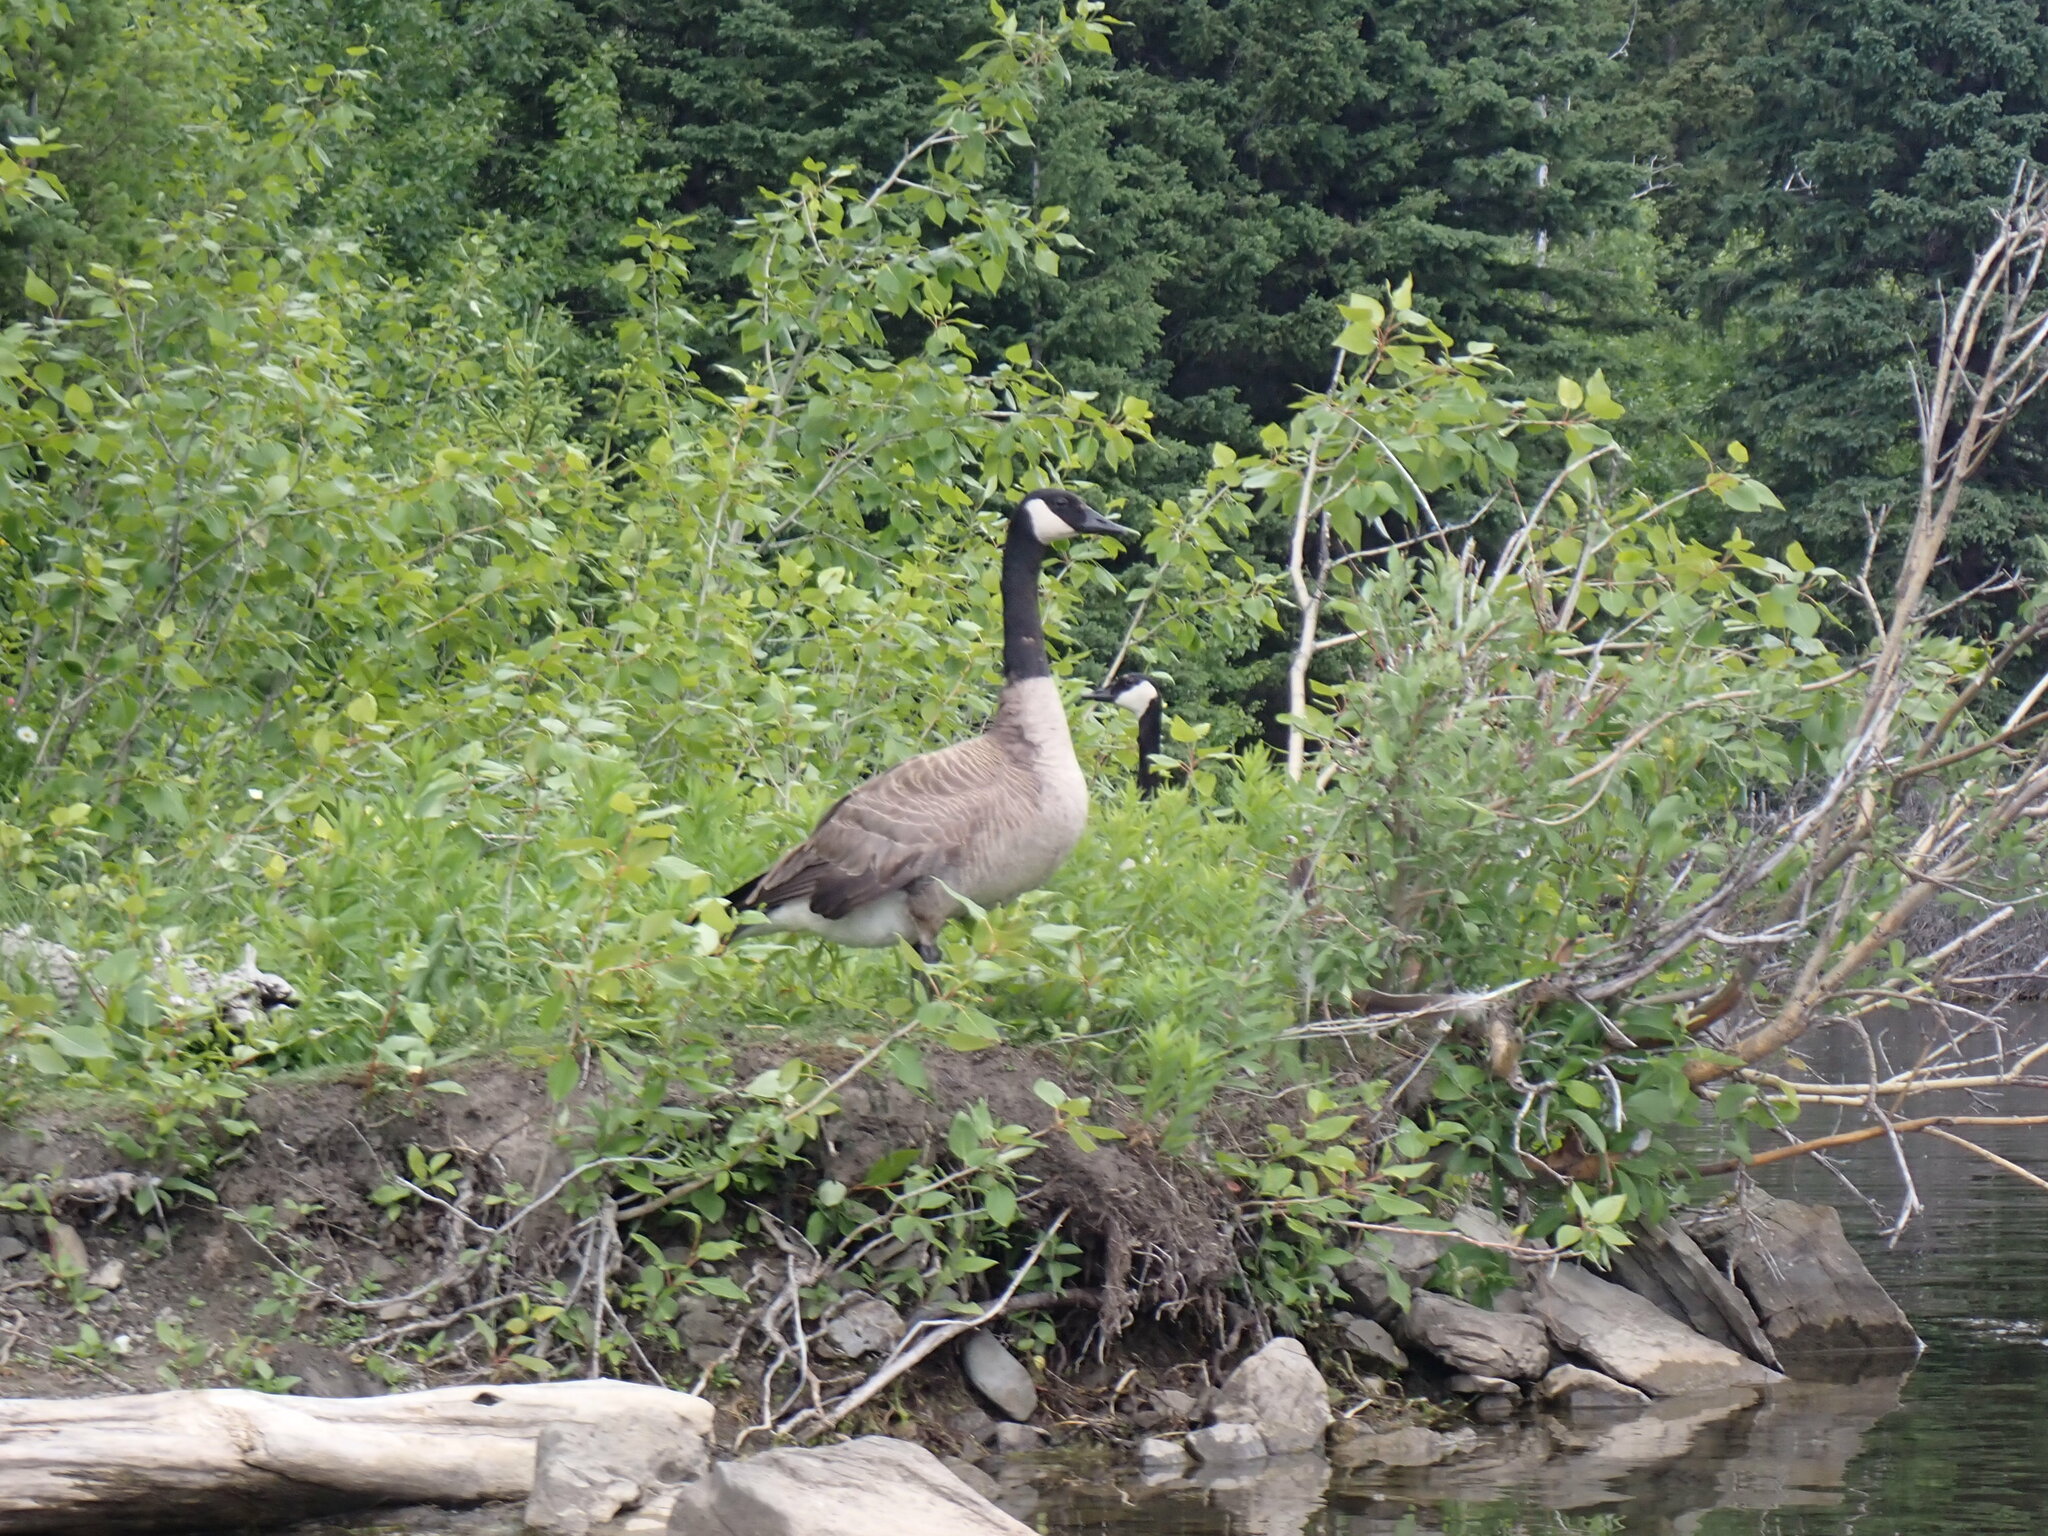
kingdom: Animalia
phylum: Chordata
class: Aves
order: Anseriformes
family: Anatidae
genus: Branta
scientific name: Branta canadensis
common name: Canada goose
